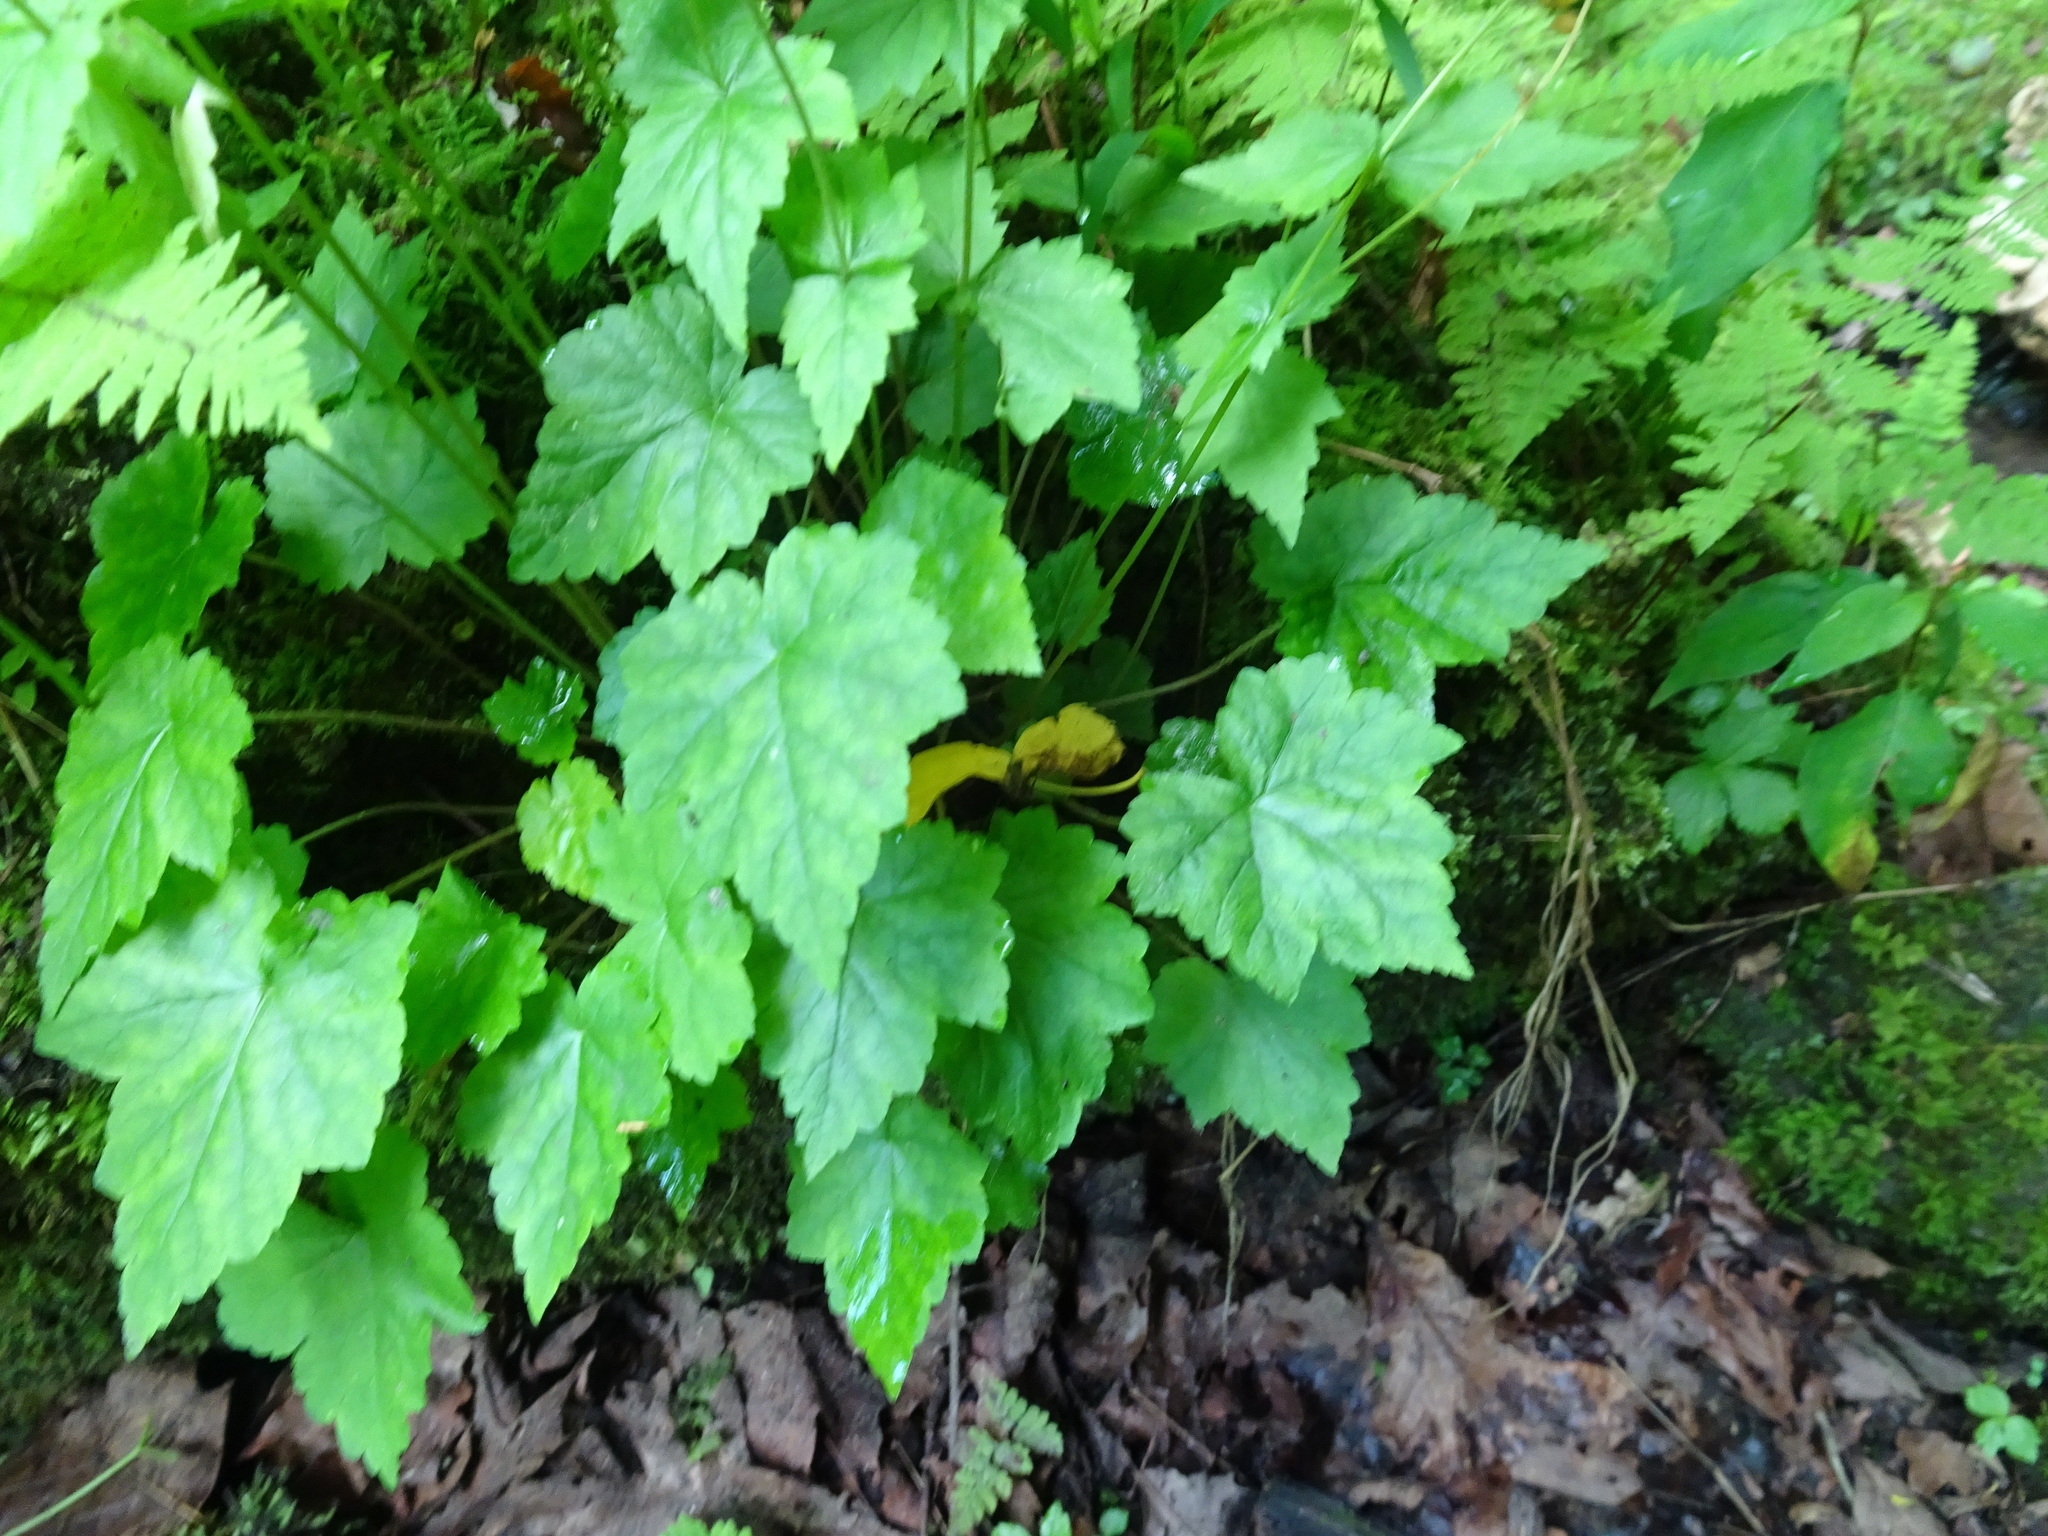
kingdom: Plantae
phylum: Tracheophyta
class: Magnoliopsida
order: Saxifragales
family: Saxifragaceae
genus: Mitella
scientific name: Mitella diphylla
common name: Coolwort
